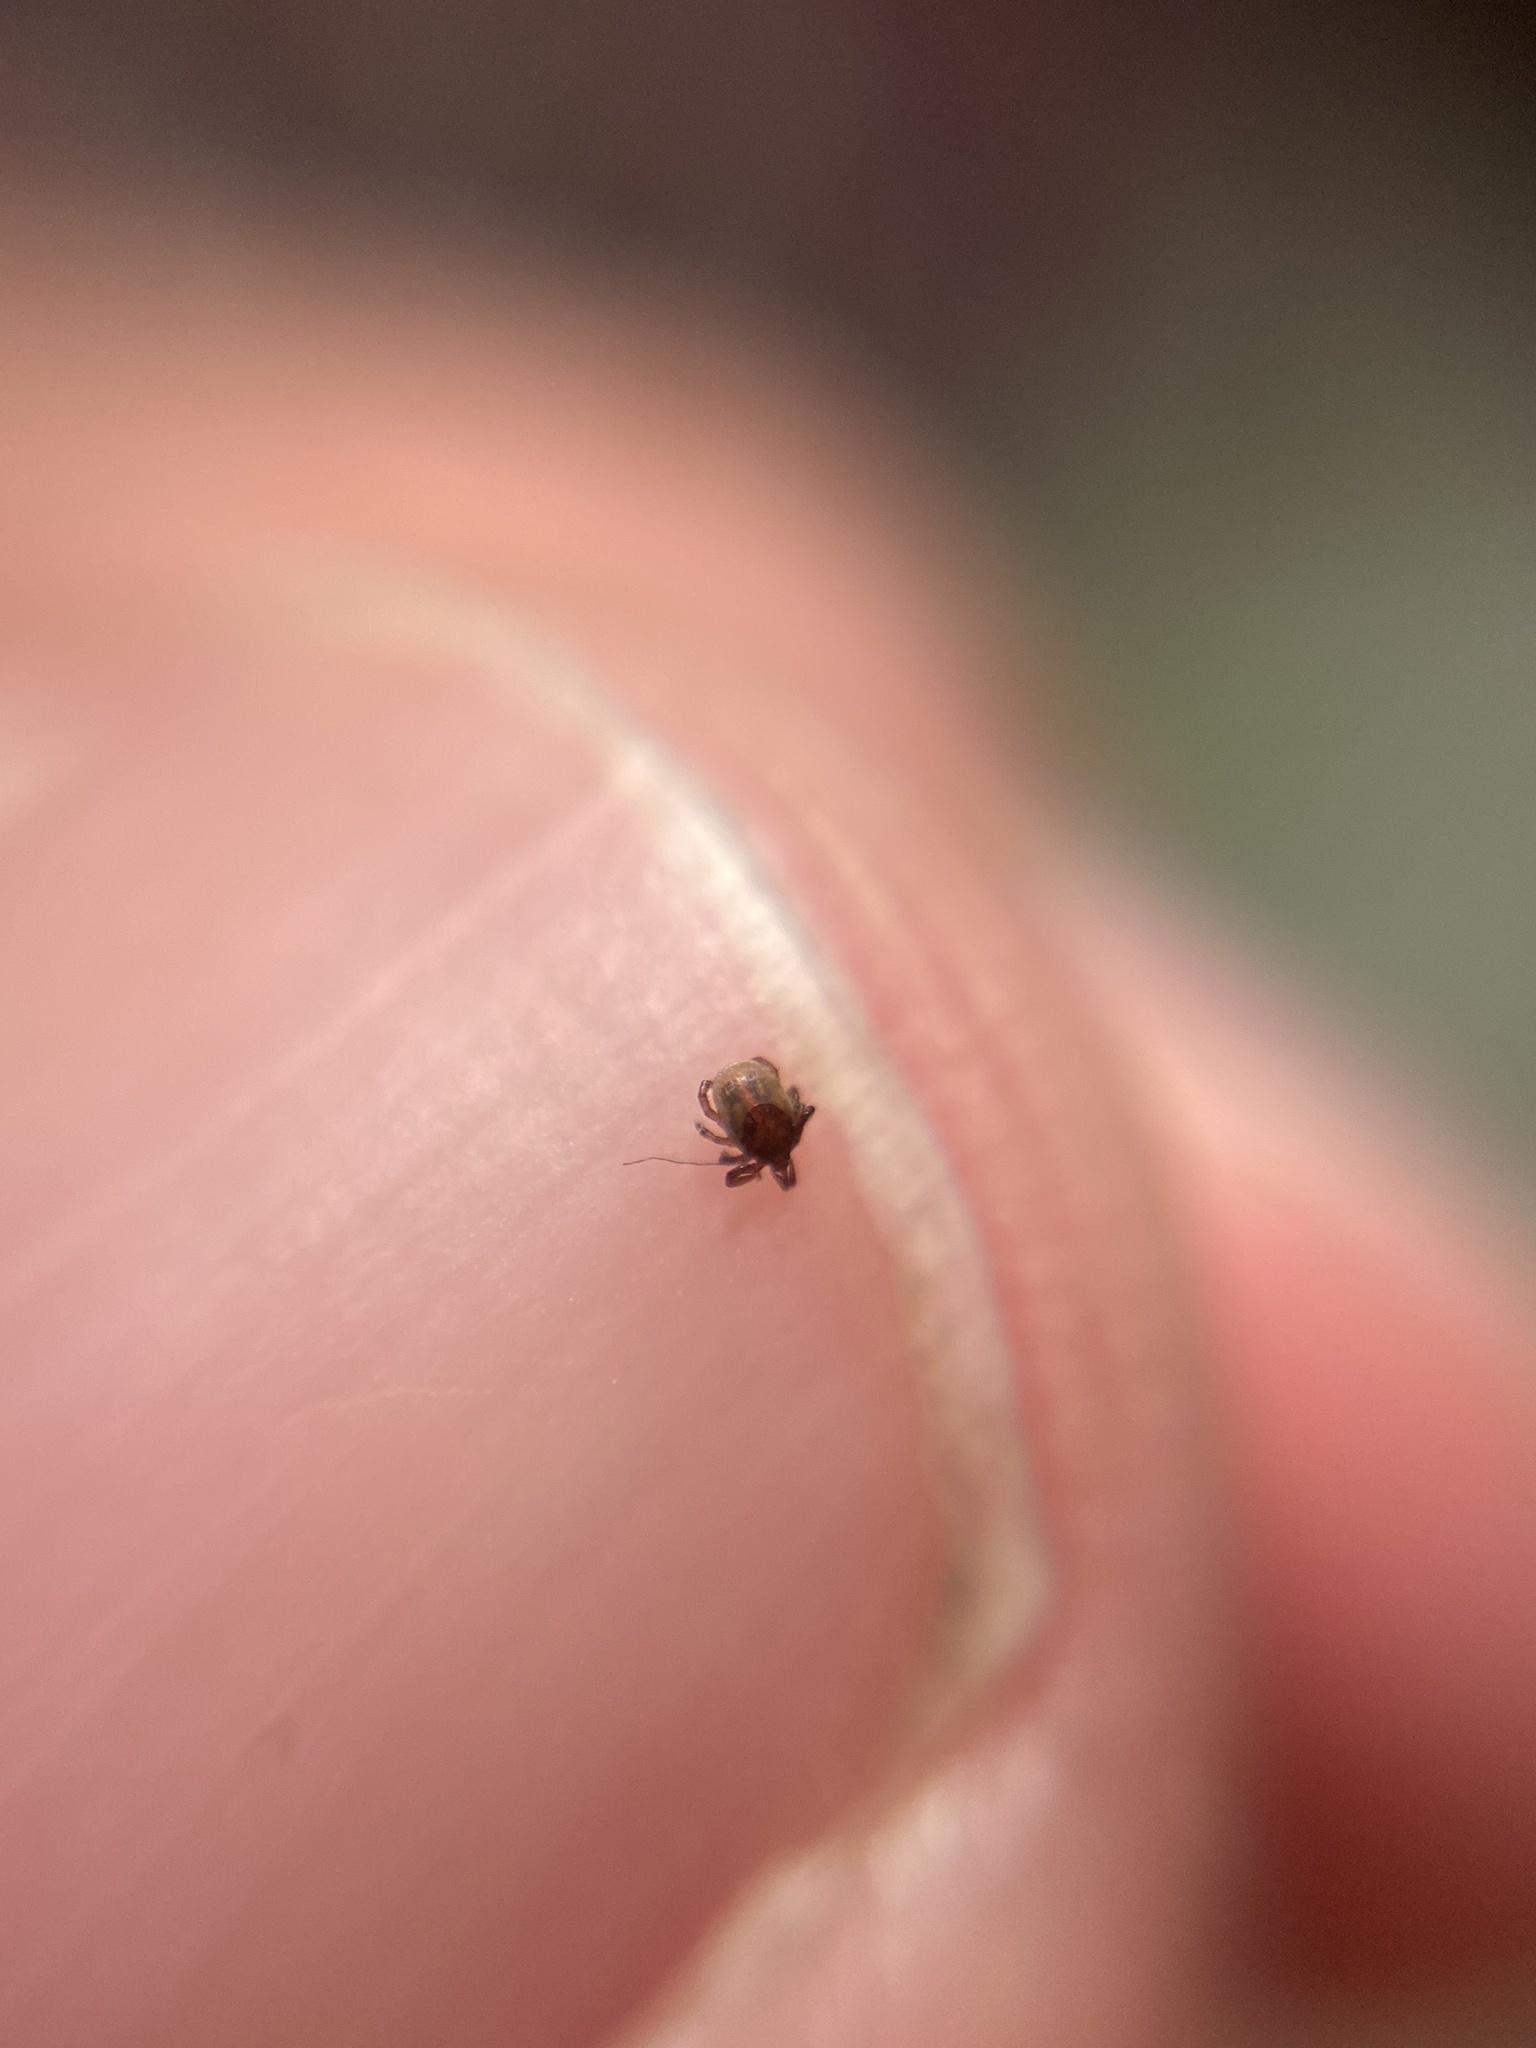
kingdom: Animalia
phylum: Arthropoda
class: Arachnida
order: Ixodida
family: Ixodidae
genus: Ixodes
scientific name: Ixodes ricinus
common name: Castor bean tick
